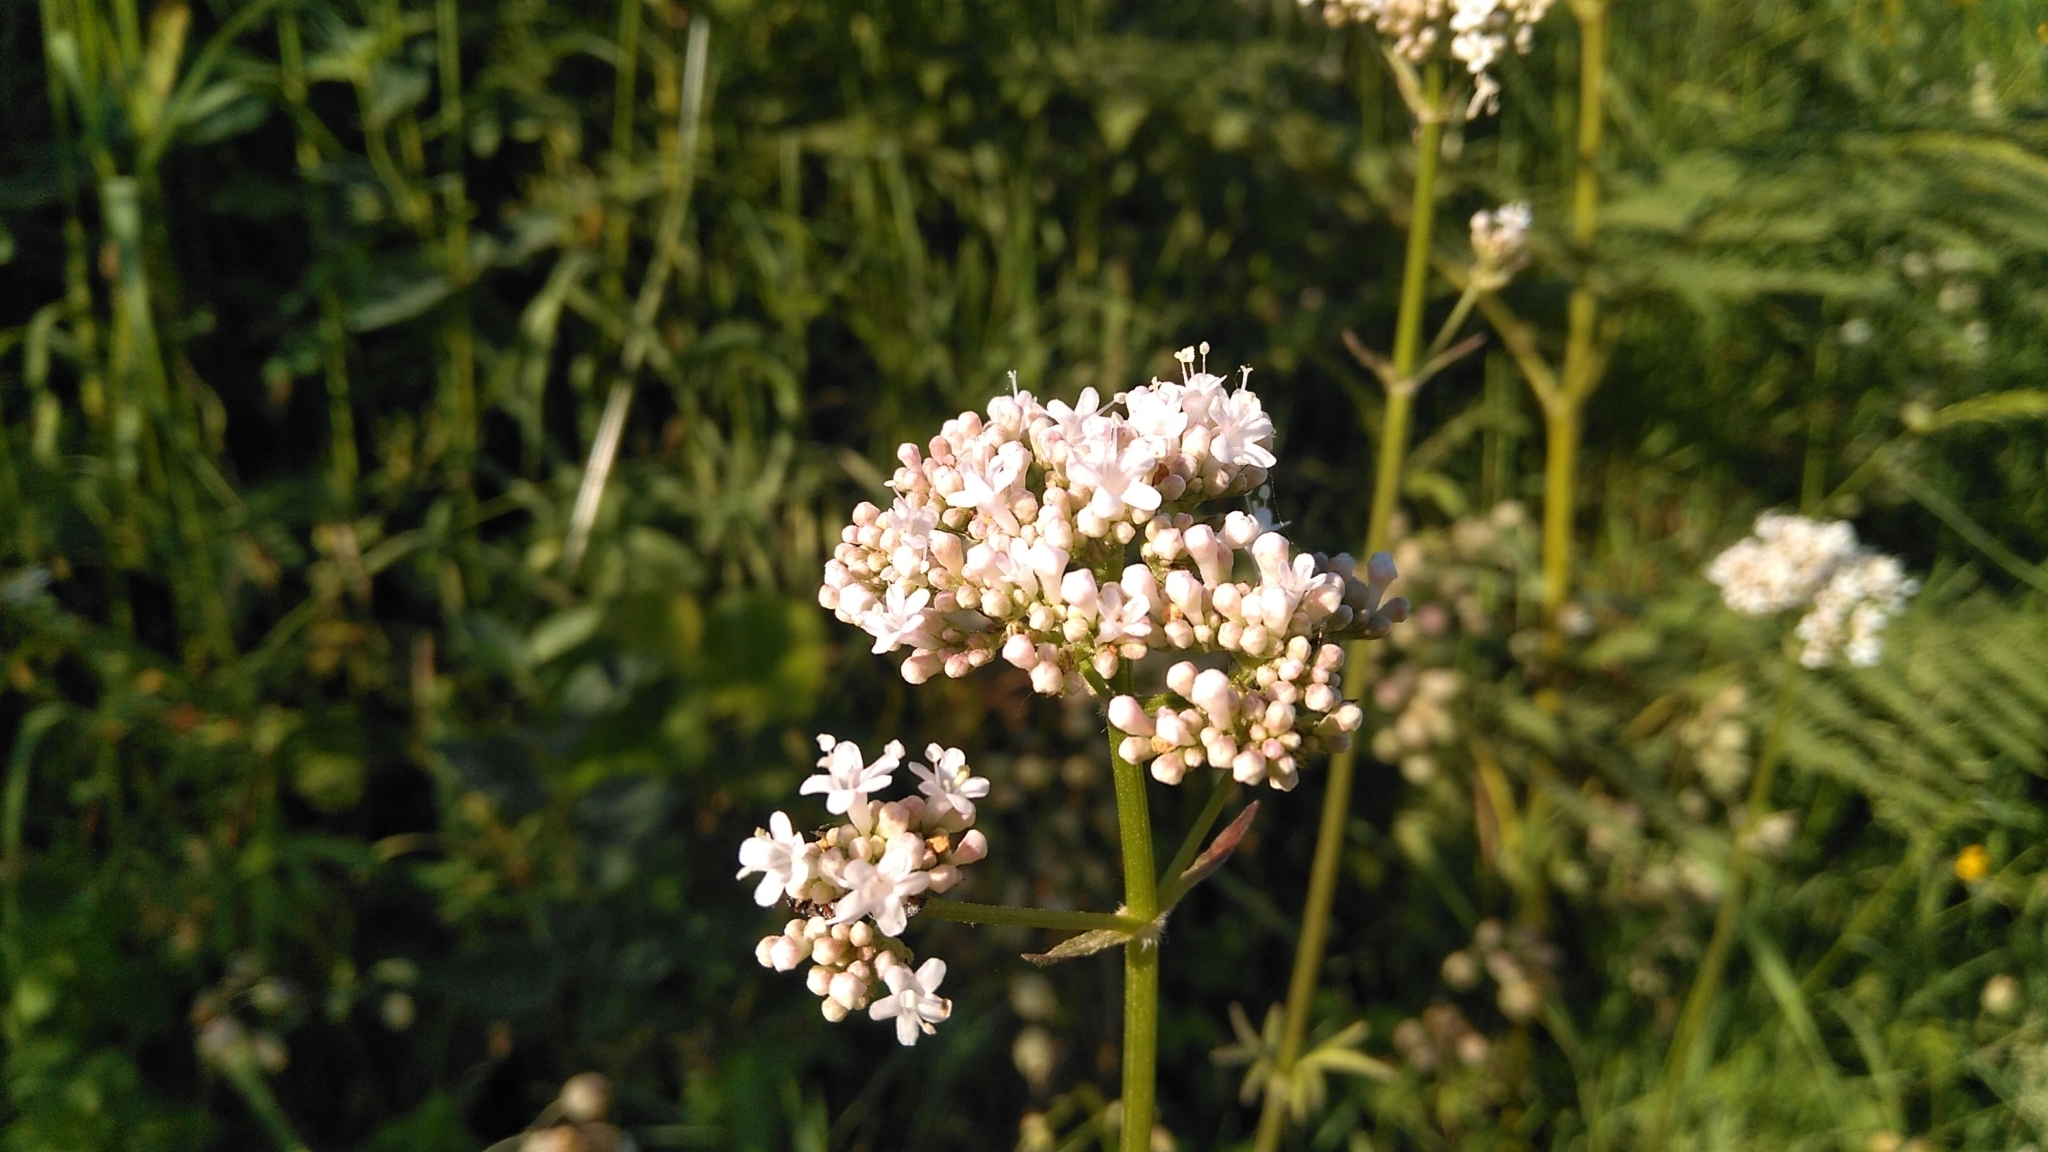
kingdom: Plantae
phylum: Tracheophyta
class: Magnoliopsida
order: Dipsacales
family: Caprifoliaceae
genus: Valeriana
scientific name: Valeriana officinalis
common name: Common valerian
